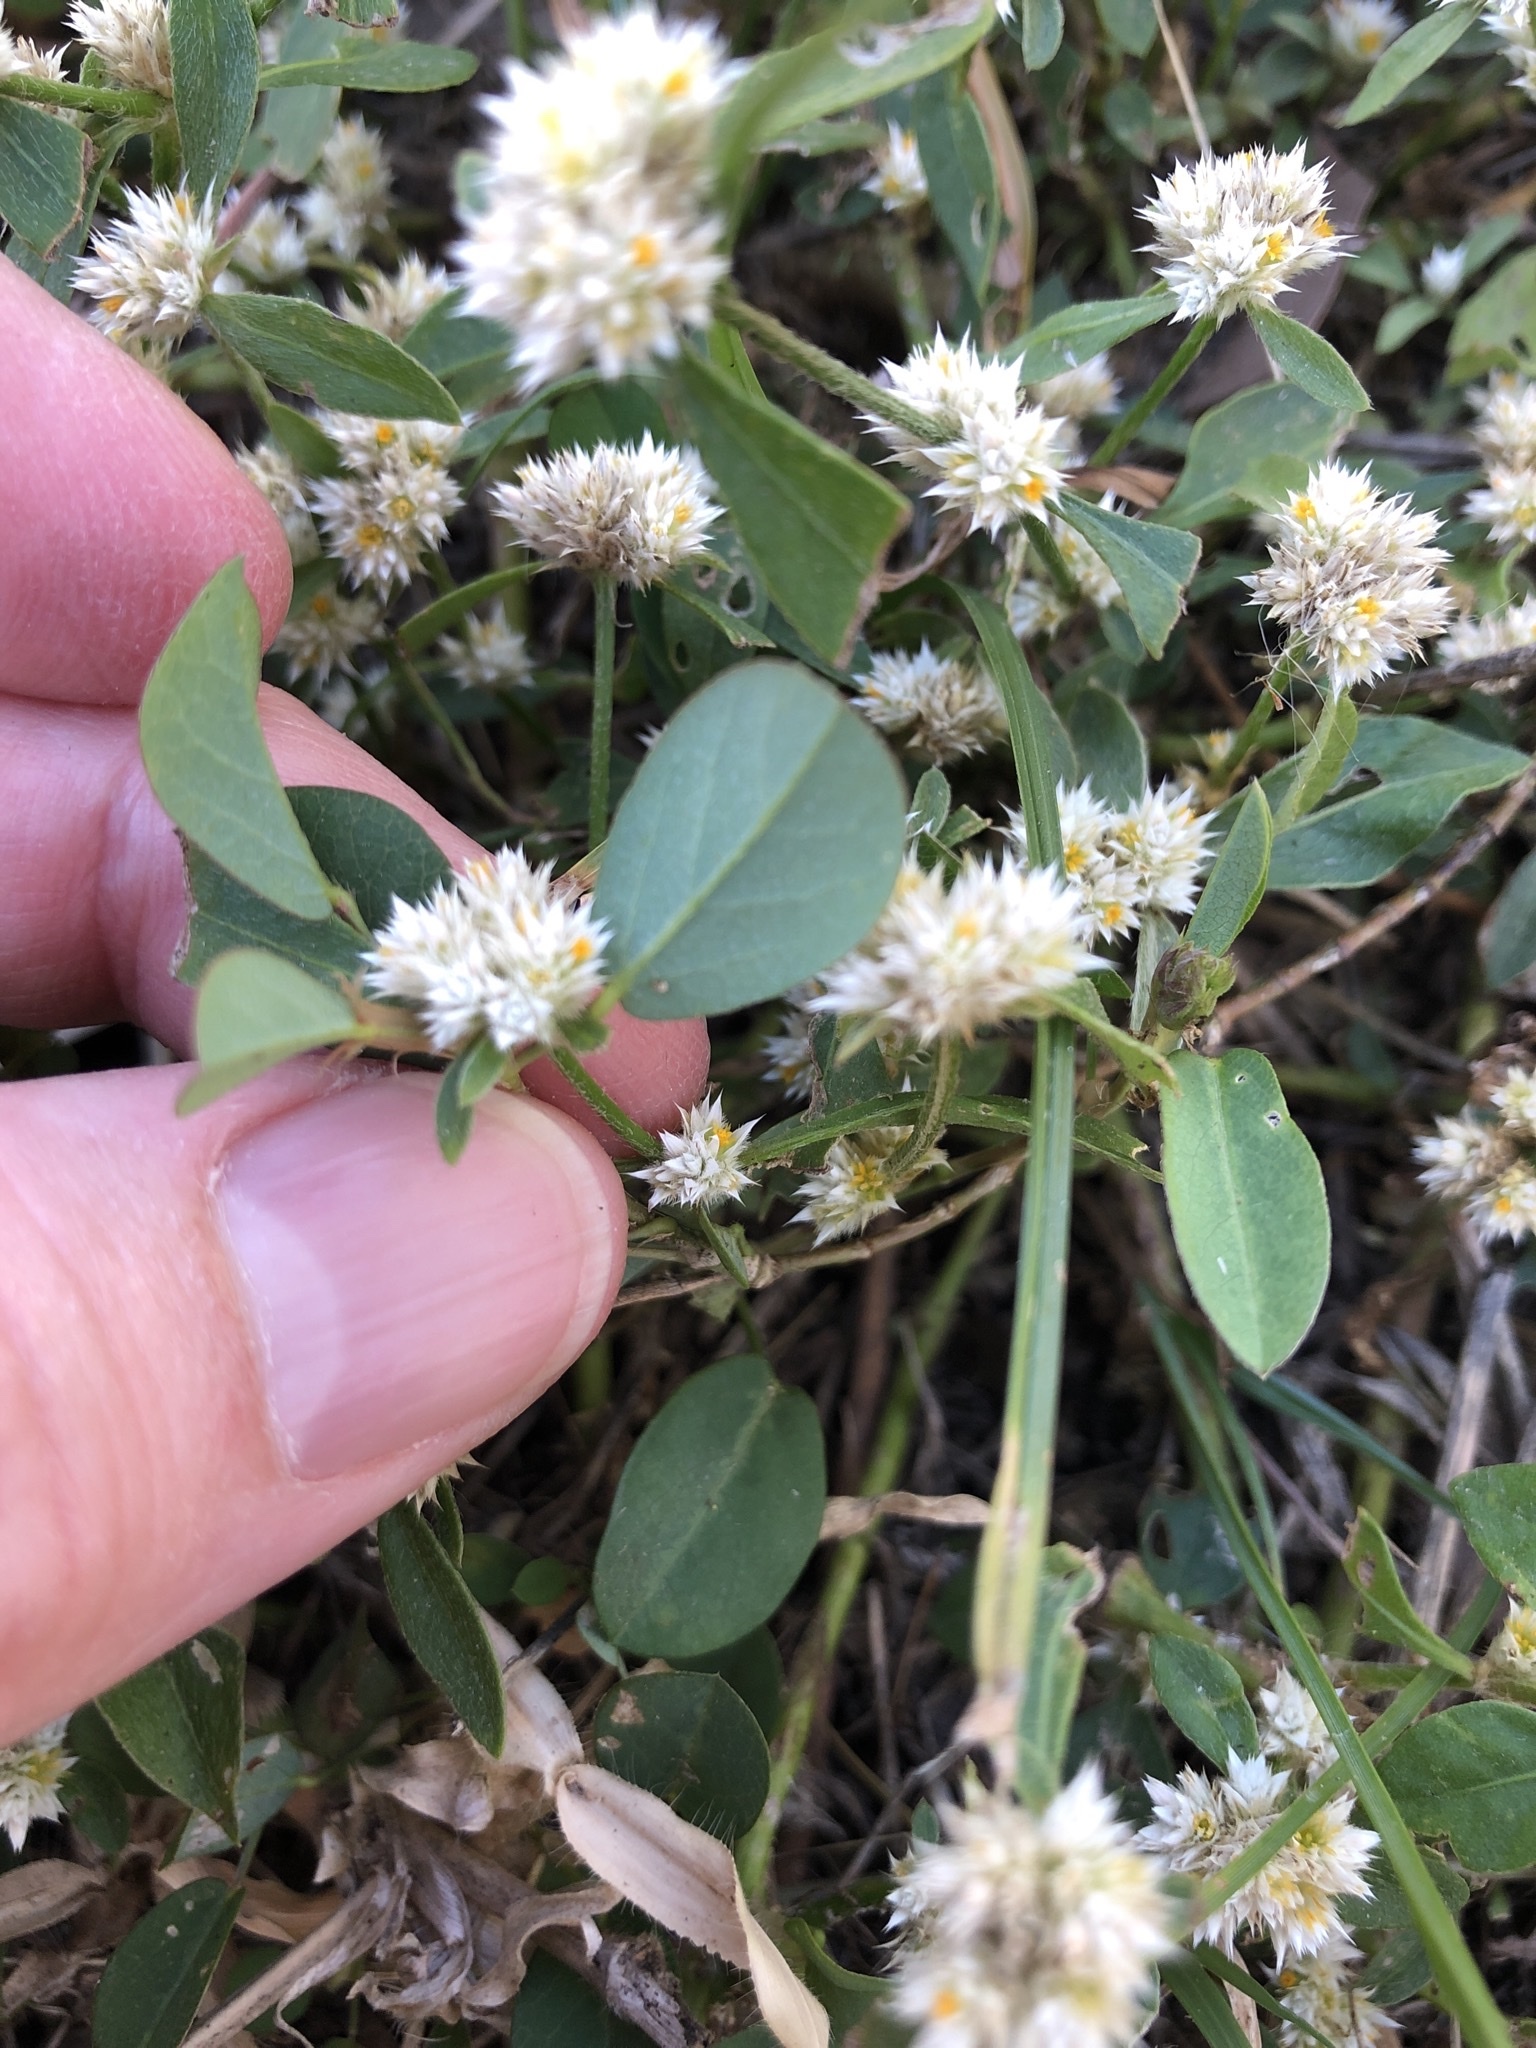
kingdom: Plantae
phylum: Tracheophyta
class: Magnoliopsida
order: Caryophyllales
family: Amaranthaceae
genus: Alternanthera
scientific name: Alternanthera ficoidea
